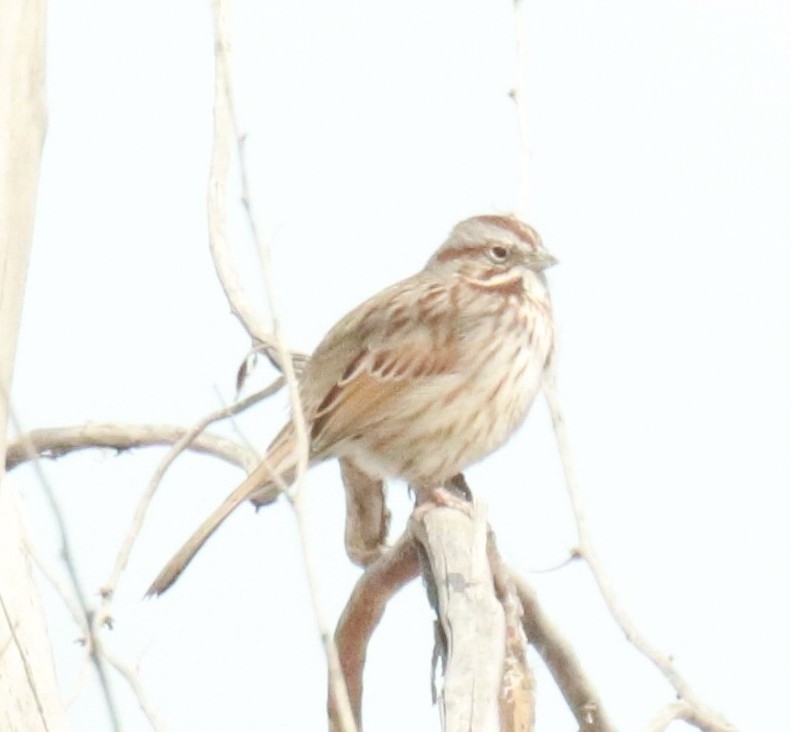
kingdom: Animalia
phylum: Chordata
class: Aves
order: Passeriformes
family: Passerellidae
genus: Melospiza
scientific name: Melospiza melodia
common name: Song sparrow
